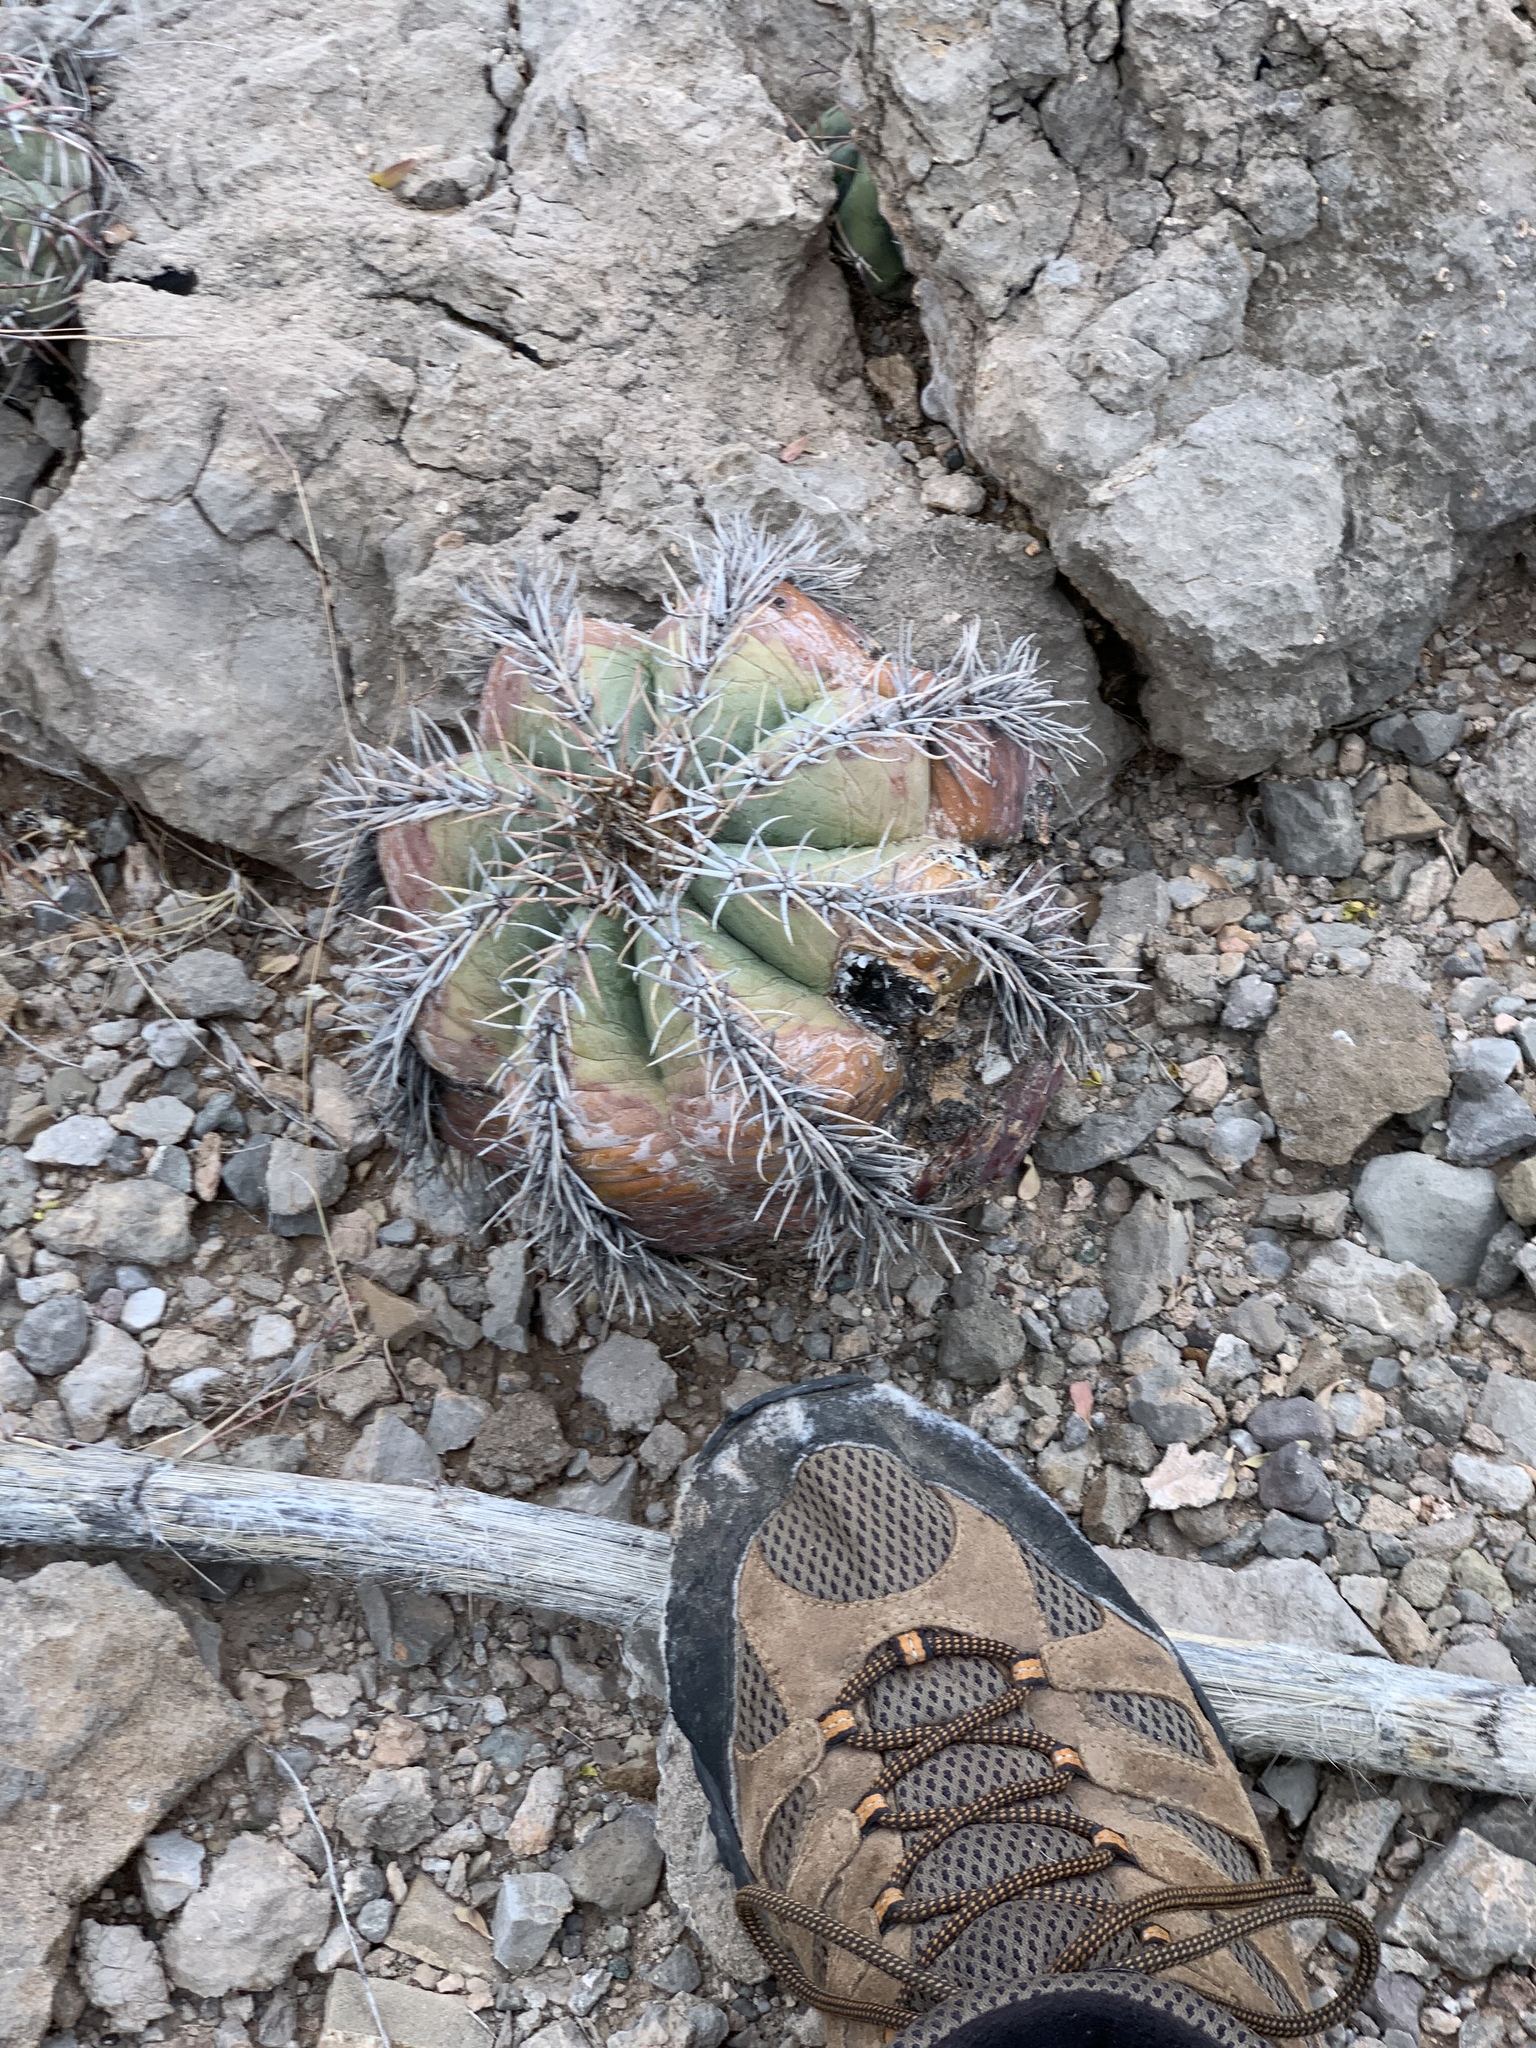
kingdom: Plantae
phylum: Tracheophyta
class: Magnoliopsida
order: Caryophyllales
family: Cactaceae
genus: Echinocactus
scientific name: Echinocactus horizonthalonius
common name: Devilshead
